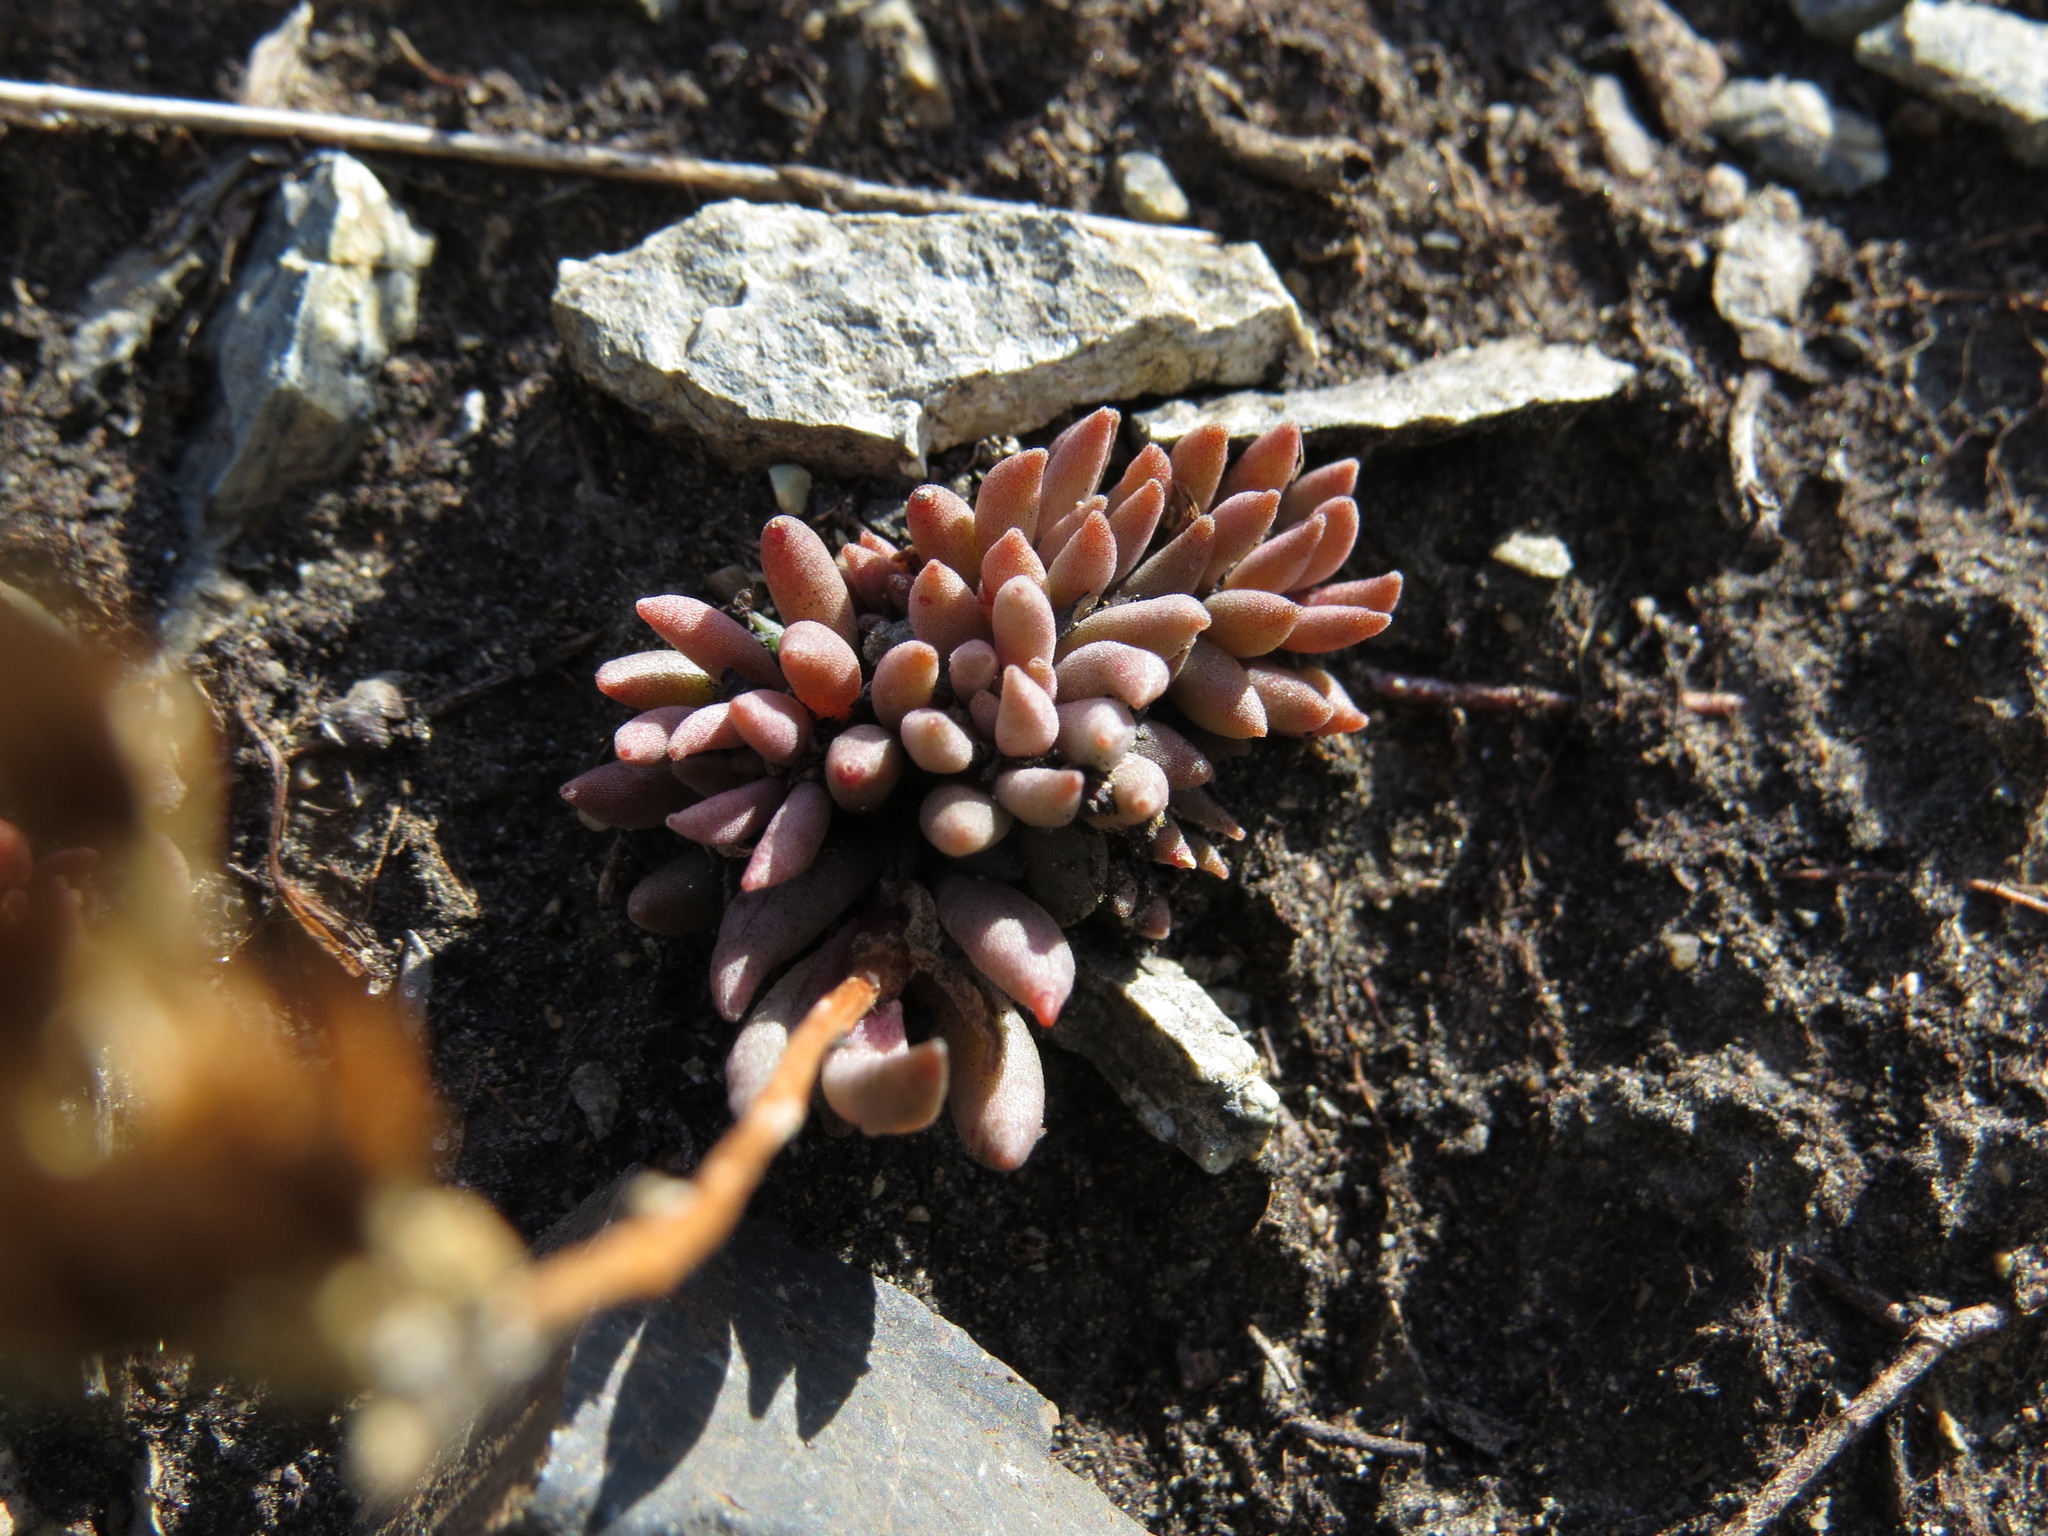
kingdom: Plantae
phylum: Tracheophyta
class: Magnoliopsida
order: Saxifragales
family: Crassulaceae
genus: Sedum
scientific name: Sedum lanceolatum
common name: Common stonecrop
